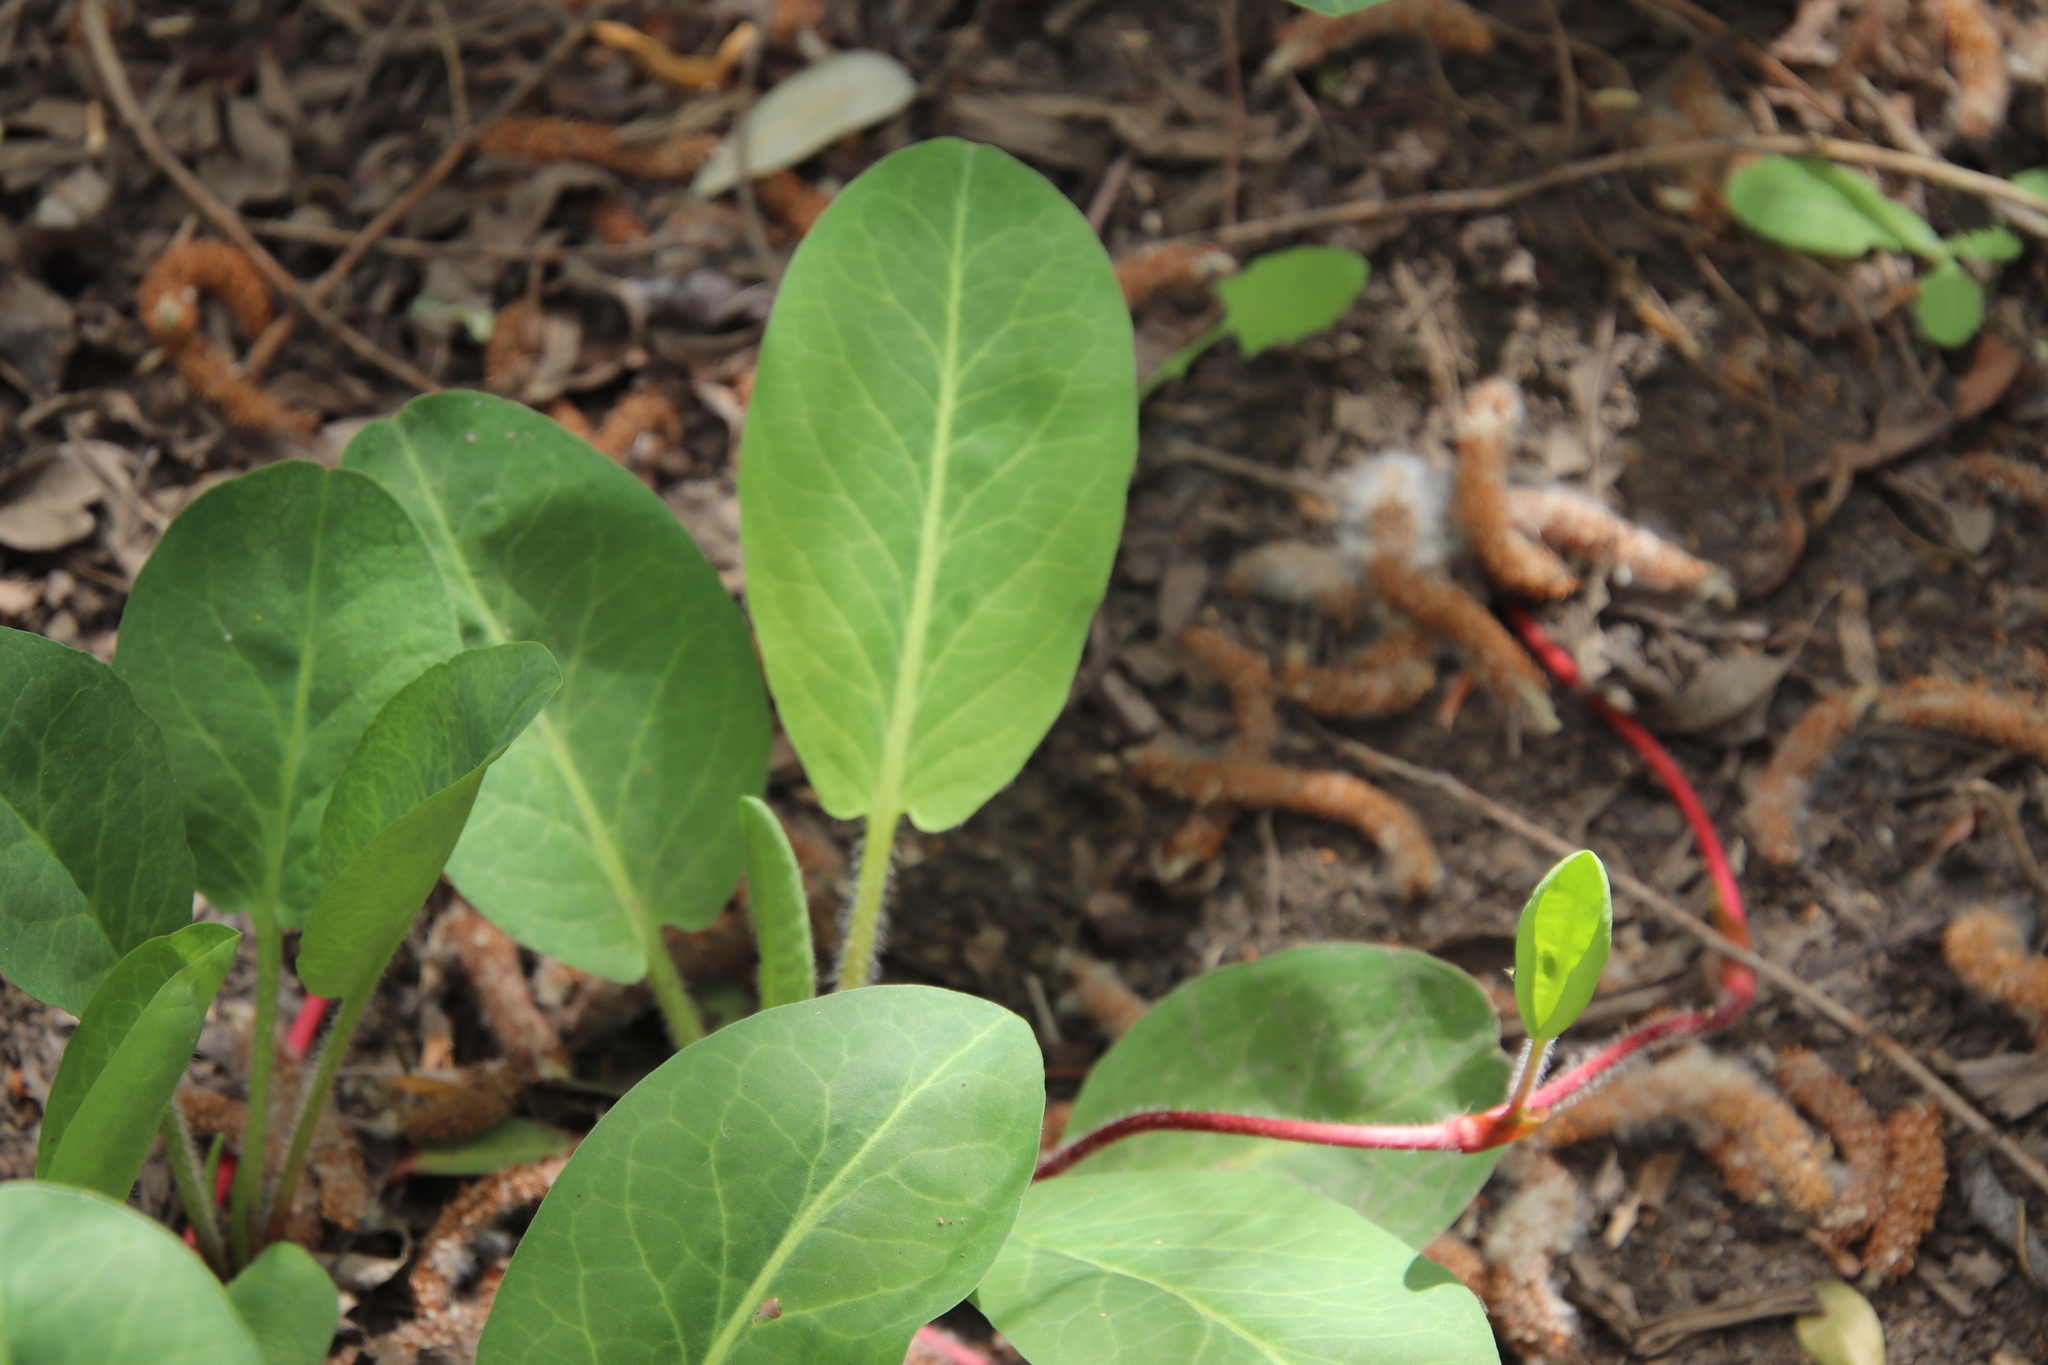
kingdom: Plantae
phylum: Tracheophyta
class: Magnoliopsida
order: Piperales
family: Saururaceae
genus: Anemopsis
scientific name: Anemopsis californica
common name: Apache-beads
